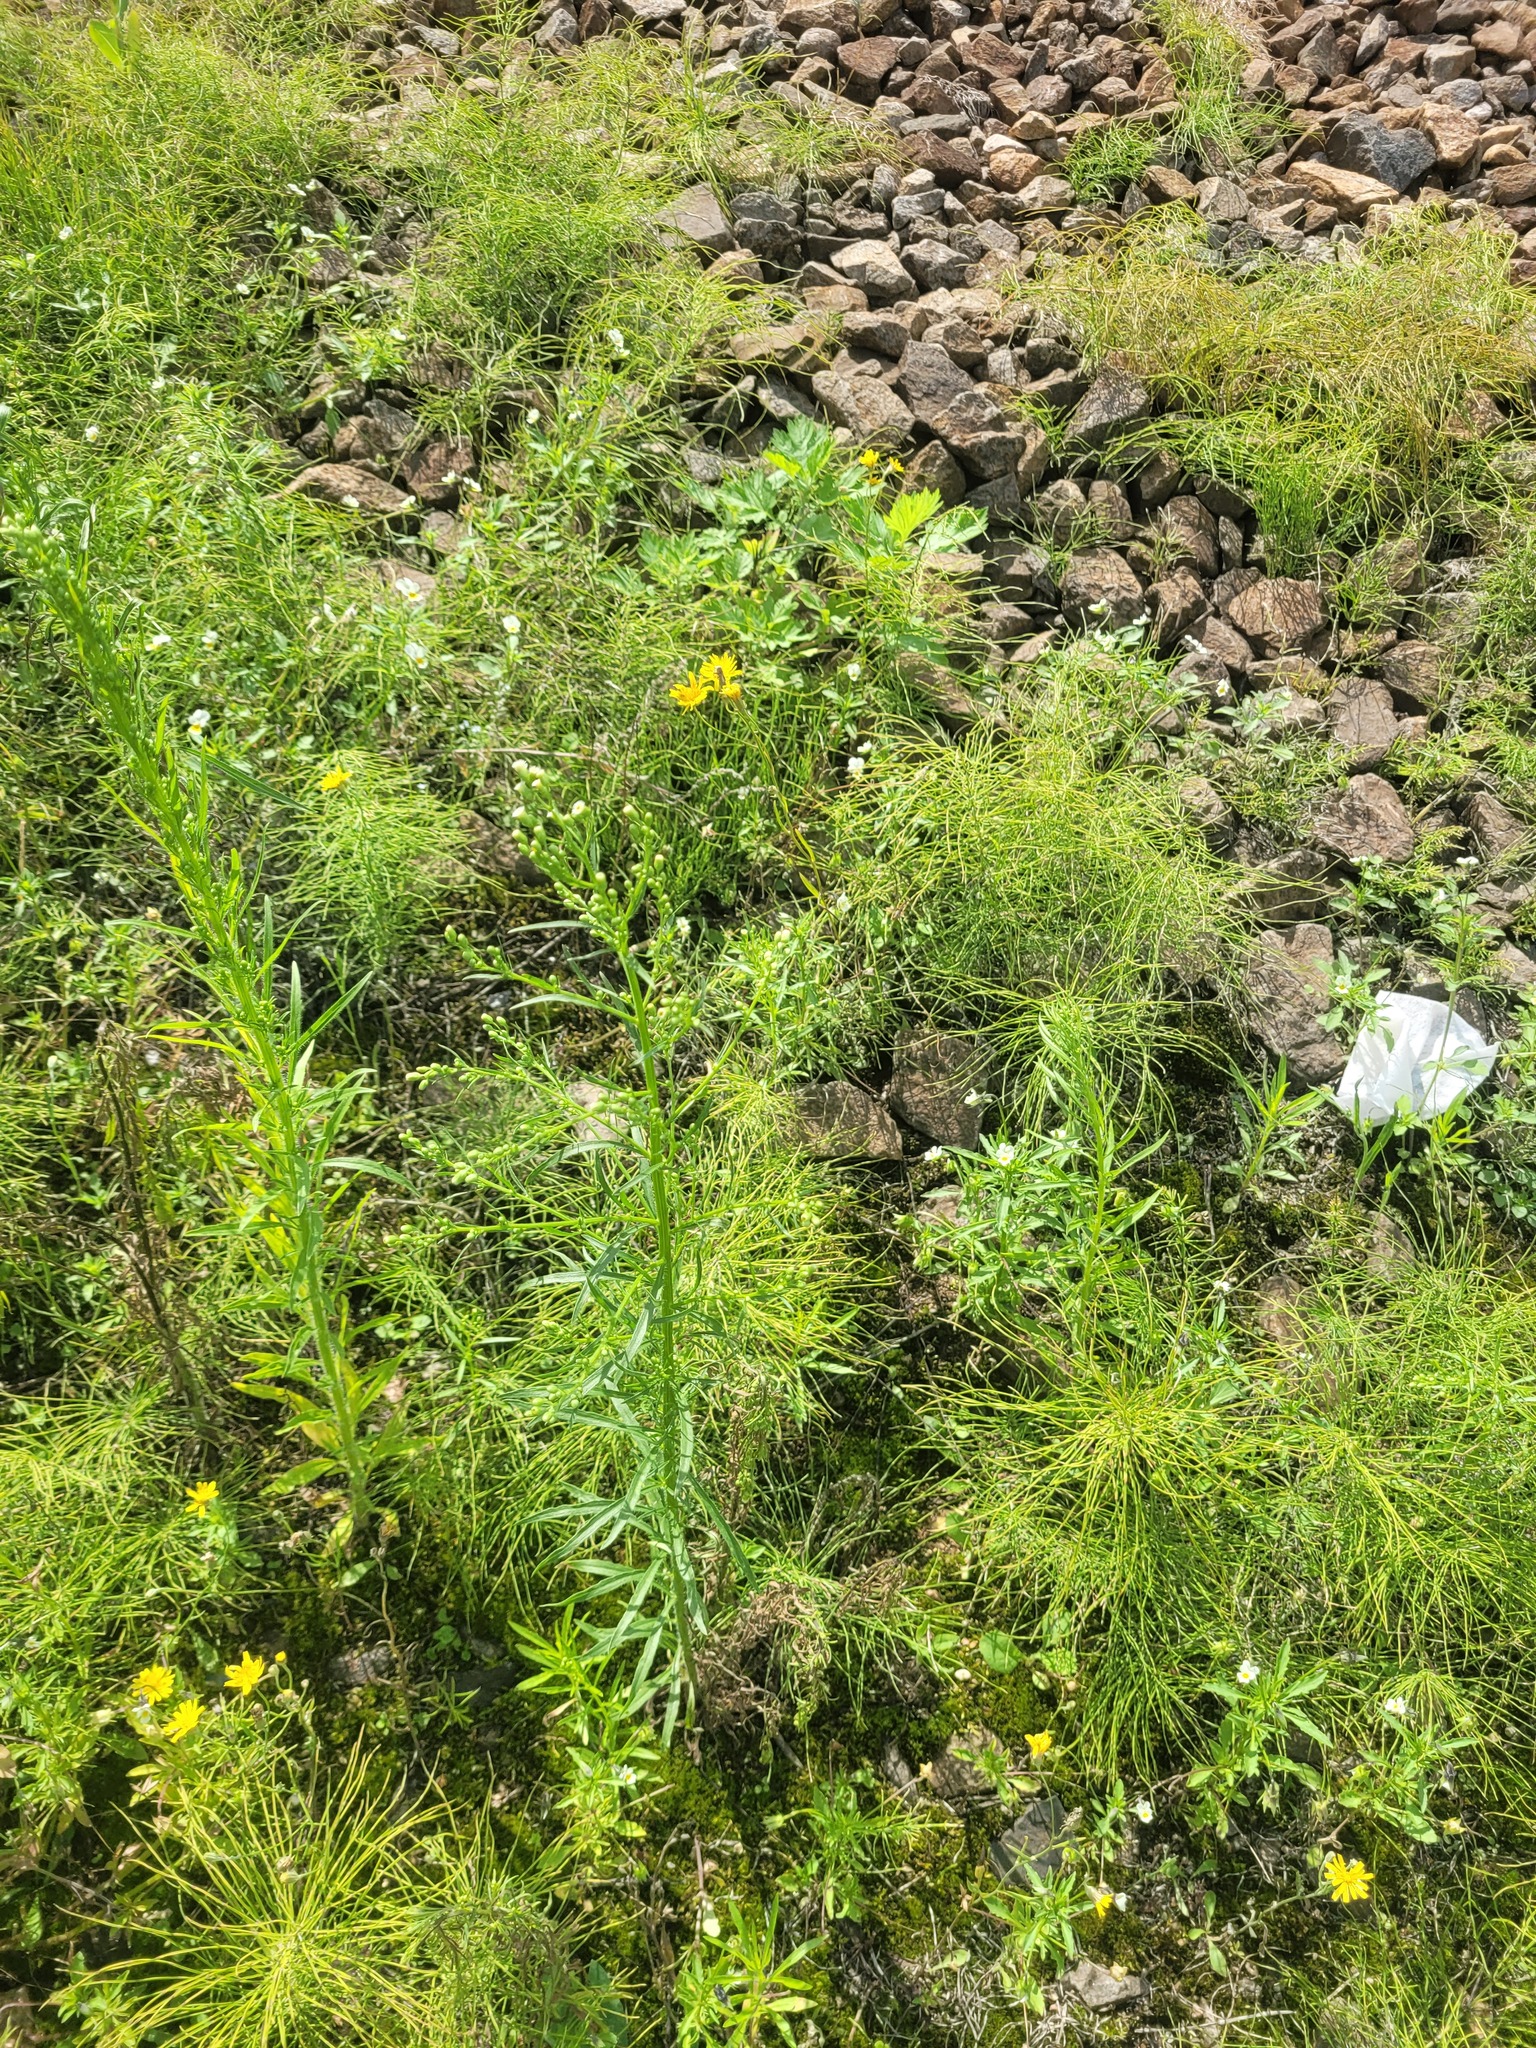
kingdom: Plantae
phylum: Tracheophyta
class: Magnoliopsida
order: Asterales
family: Asteraceae
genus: Erigeron
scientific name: Erigeron canadensis
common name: Canadian fleabane
